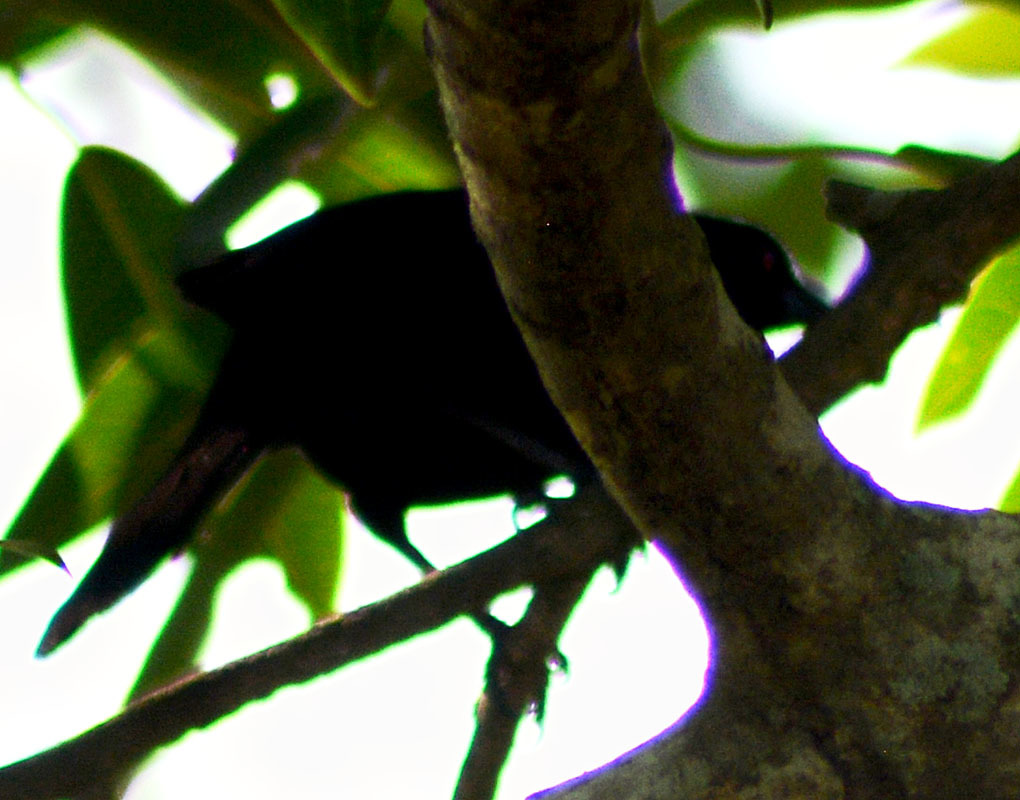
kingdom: Animalia
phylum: Chordata
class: Aves
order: Passeriformes
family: Icteridae
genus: Molothrus
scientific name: Molothrus aeneus
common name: Bronzed cowbird
